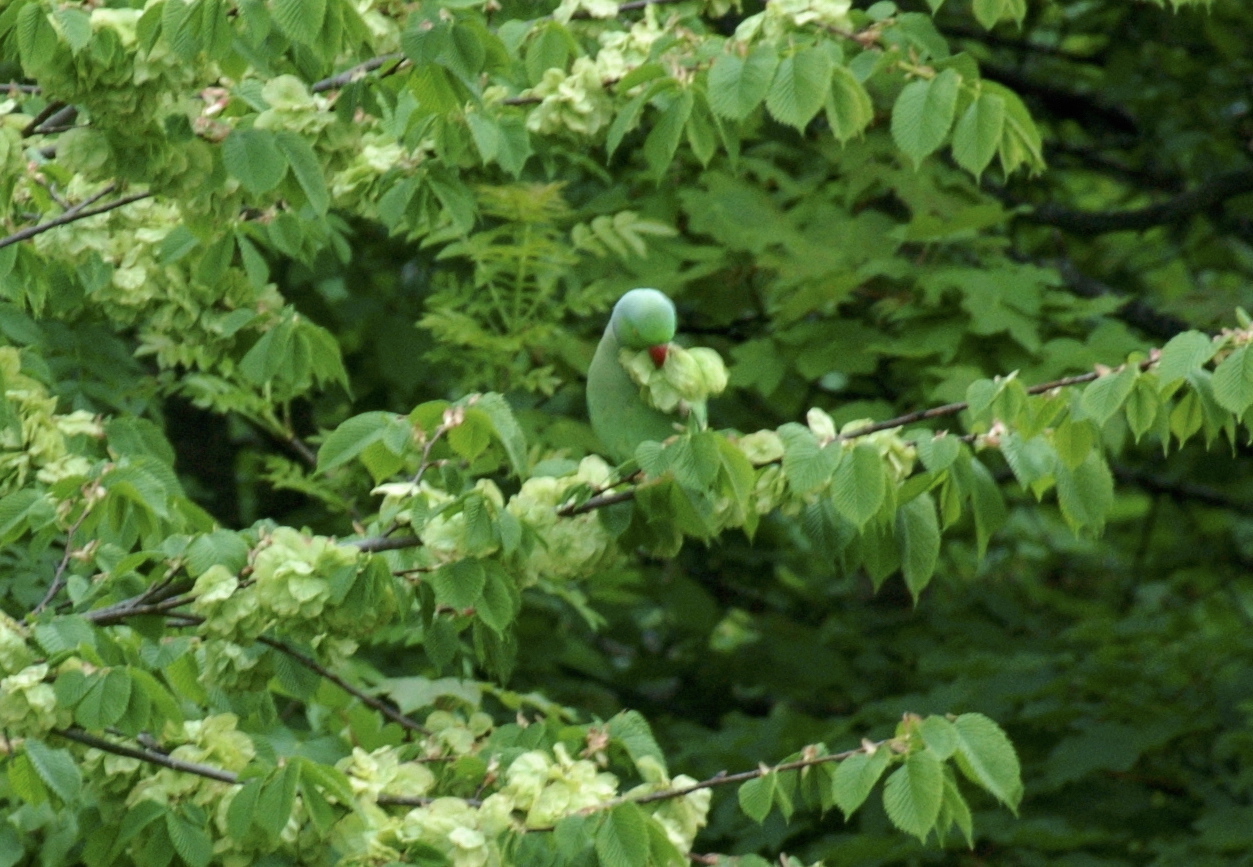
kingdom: Animalia
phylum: Chordata
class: Aves
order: Psittaciformes
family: Psittacidae
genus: Psittacula
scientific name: Psittacula krameri
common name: Rose-ringed parakeet
